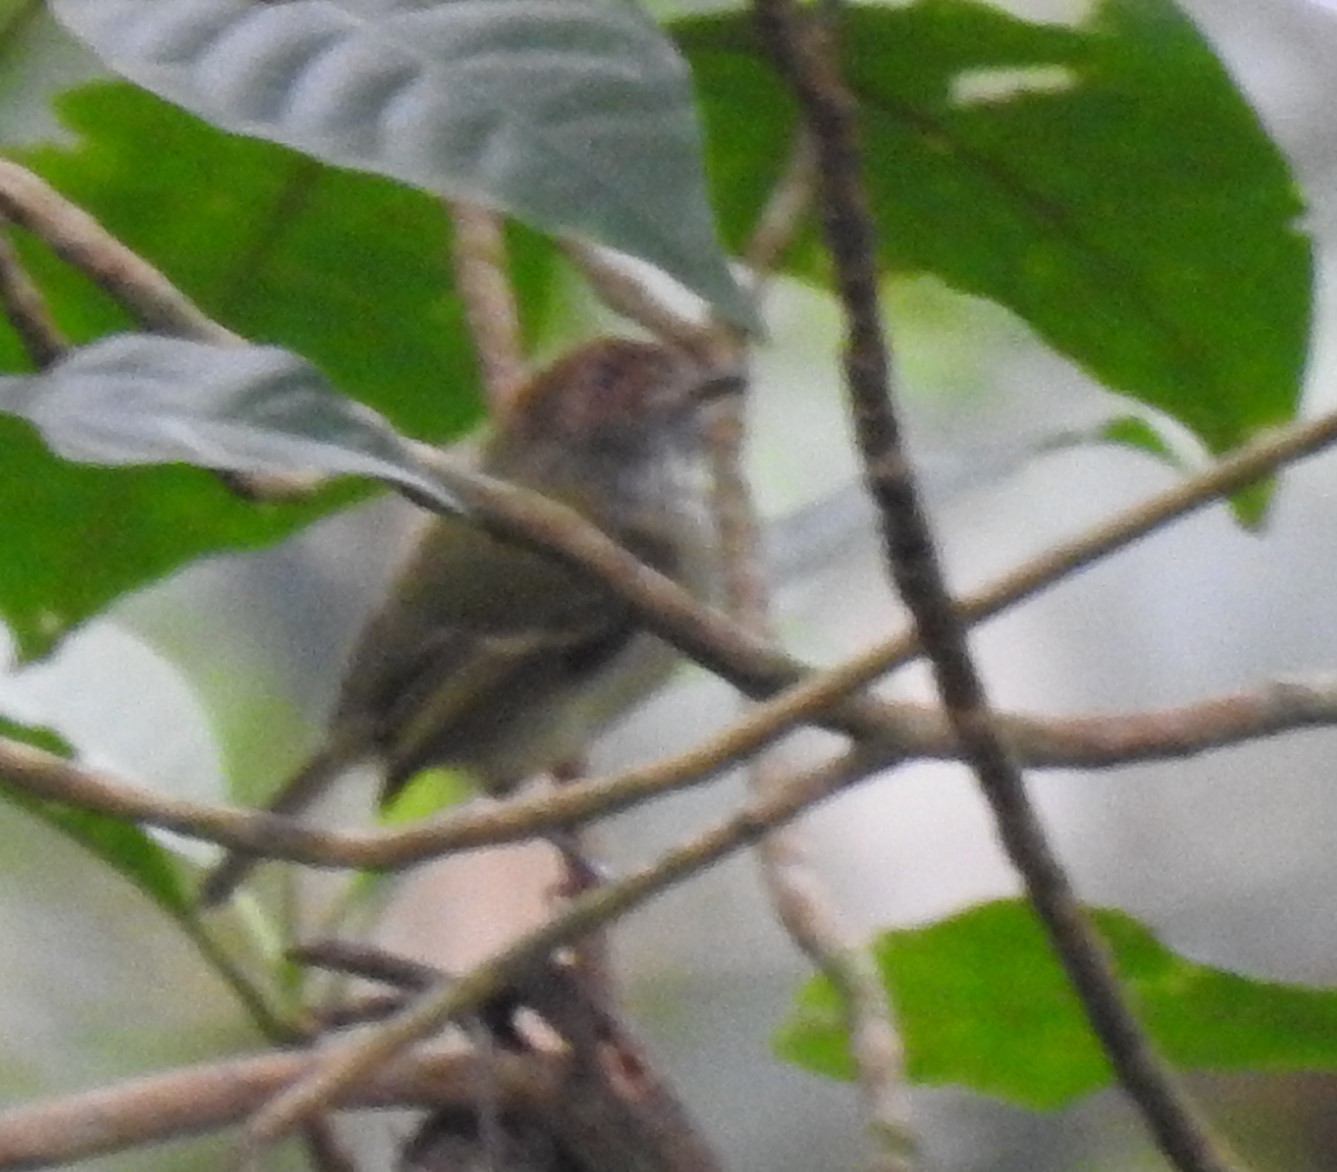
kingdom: Animalia
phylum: Chordata
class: Aves
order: Passeriformes
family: Tyrannidae
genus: Lophotriccus
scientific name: Lophotriccus pileatus
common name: Scale-crested pygmy-tyrant
